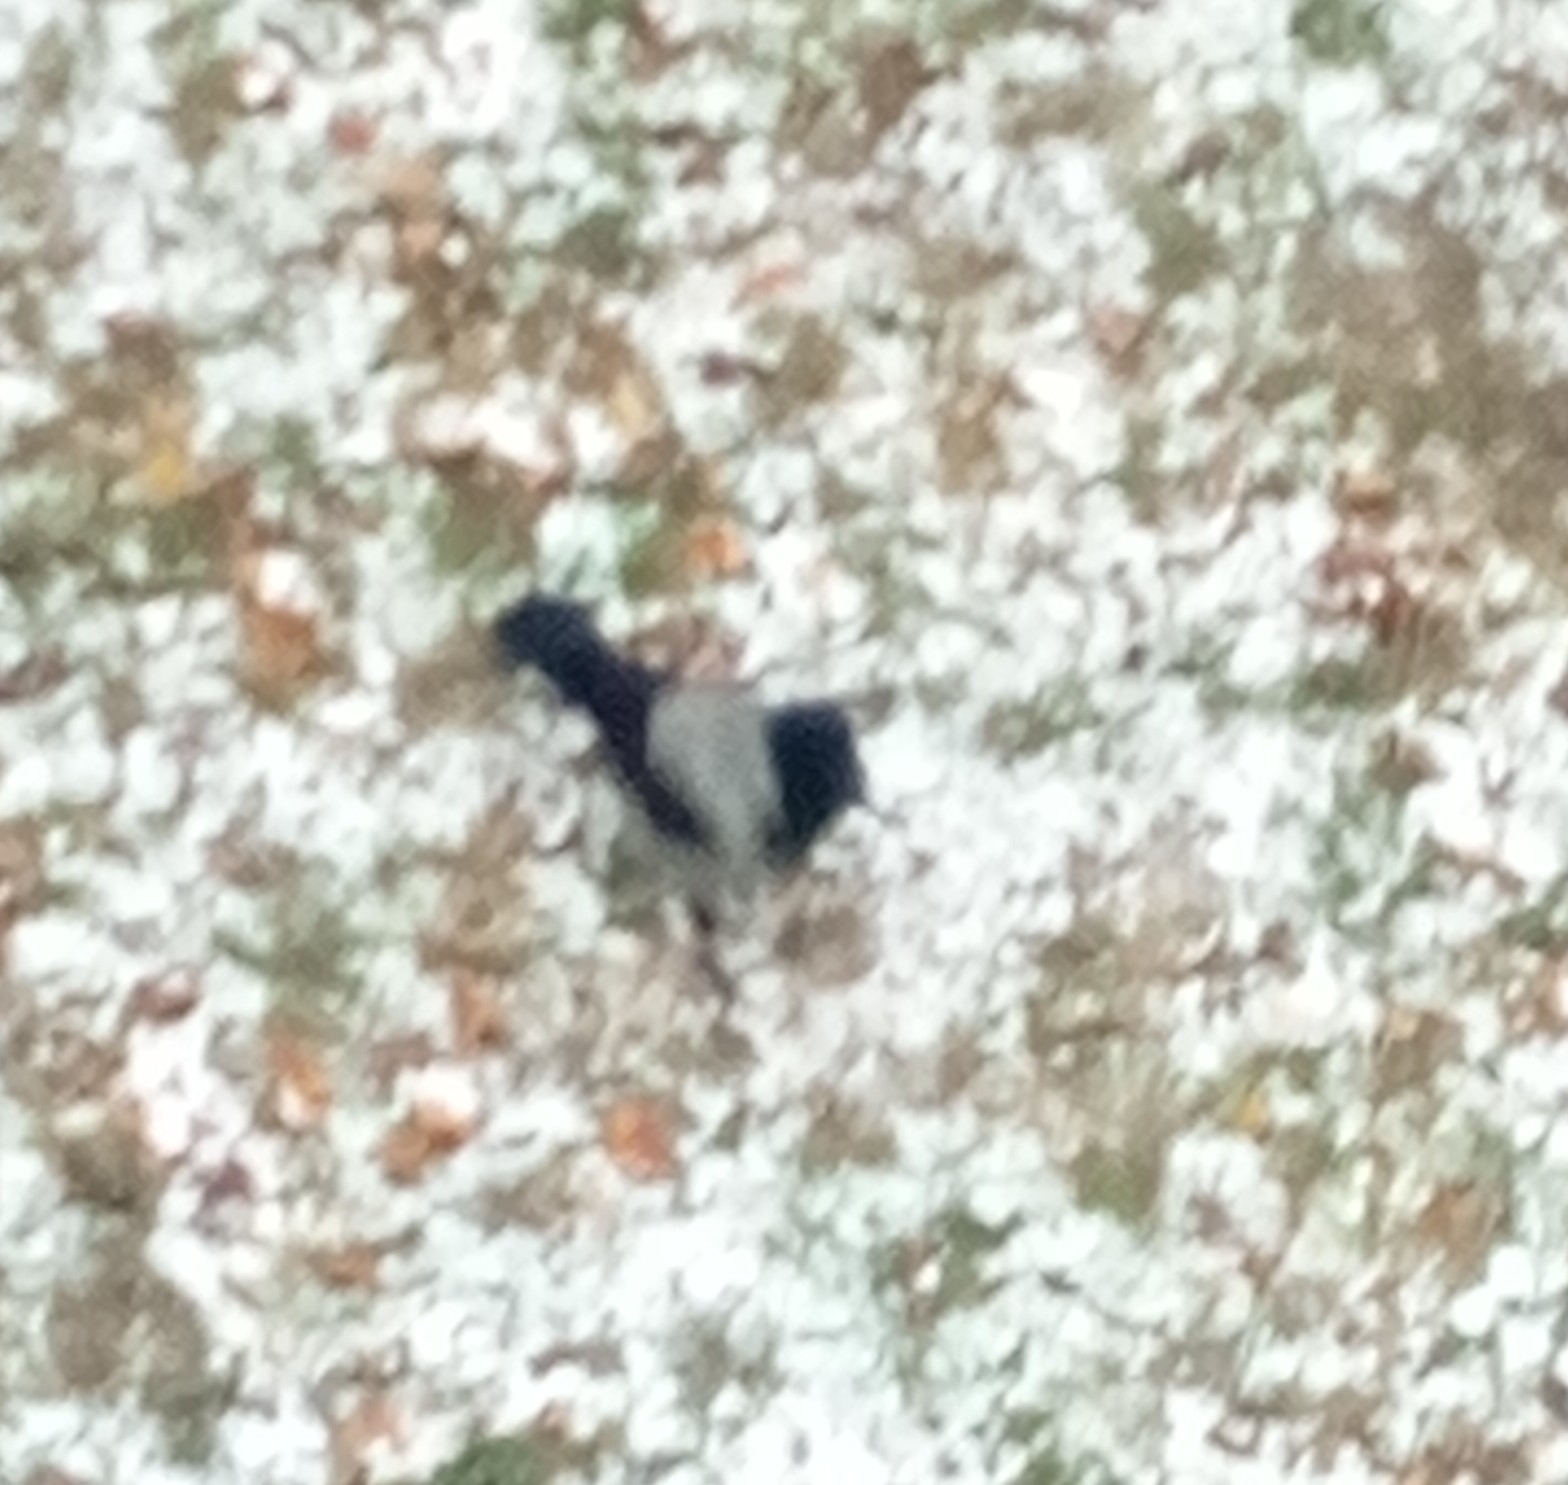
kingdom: Animalia
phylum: Chordata
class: Aves
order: Passeriformes
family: Corvidae
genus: Corvus
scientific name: Corvus cornix
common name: Hooded crow
